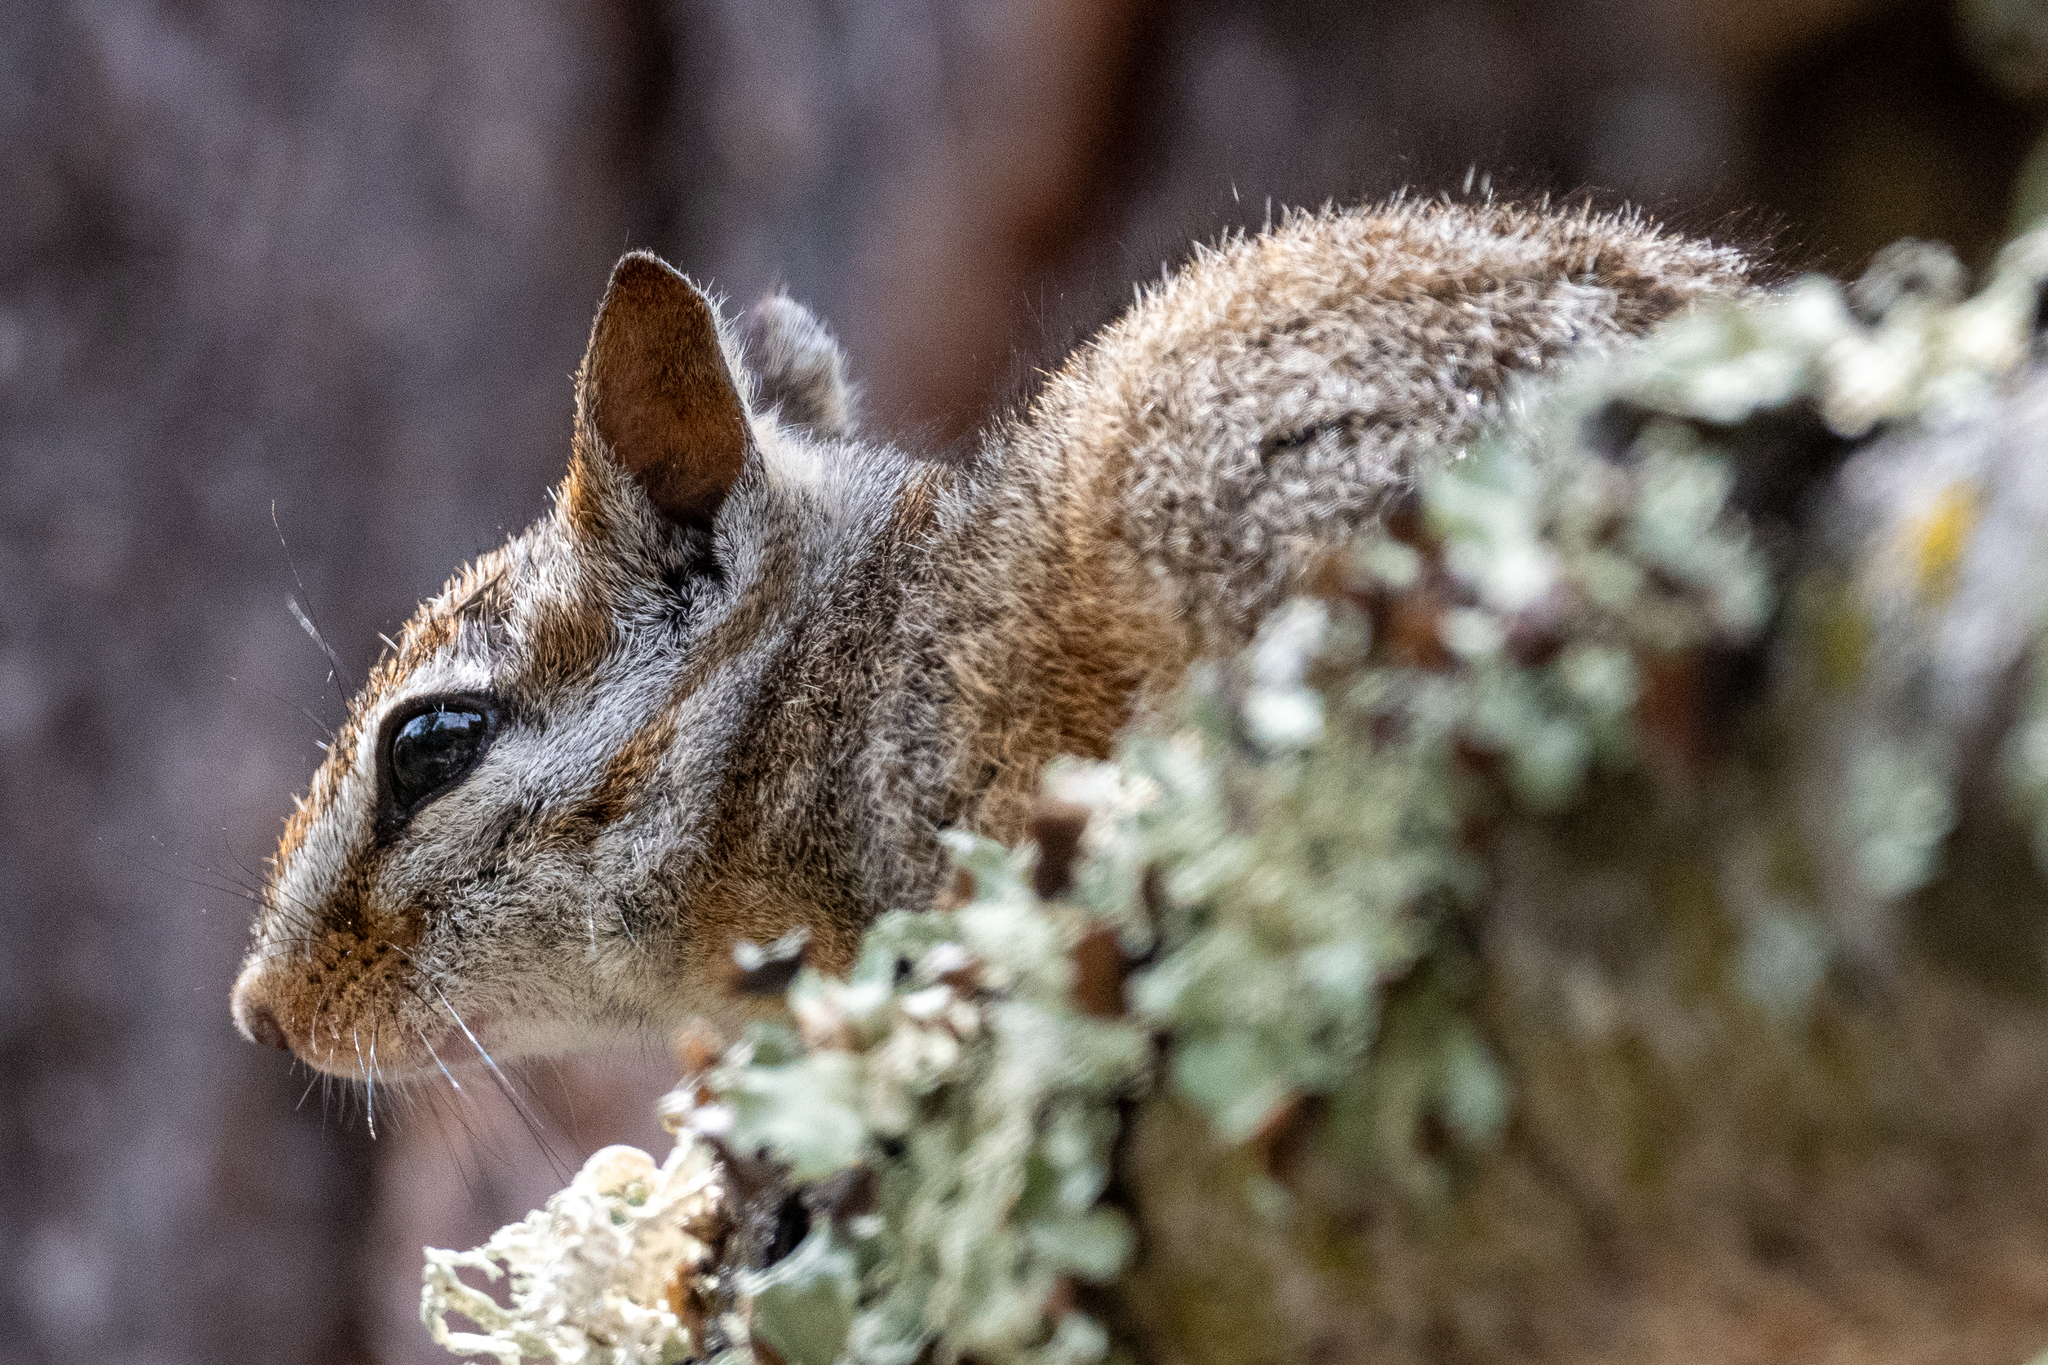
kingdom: Animalia
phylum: Chordata
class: Mammalia
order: Rodentia
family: Sciuridae
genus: Tamias
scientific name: Tamias merriami
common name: Merriam's chipmunk
